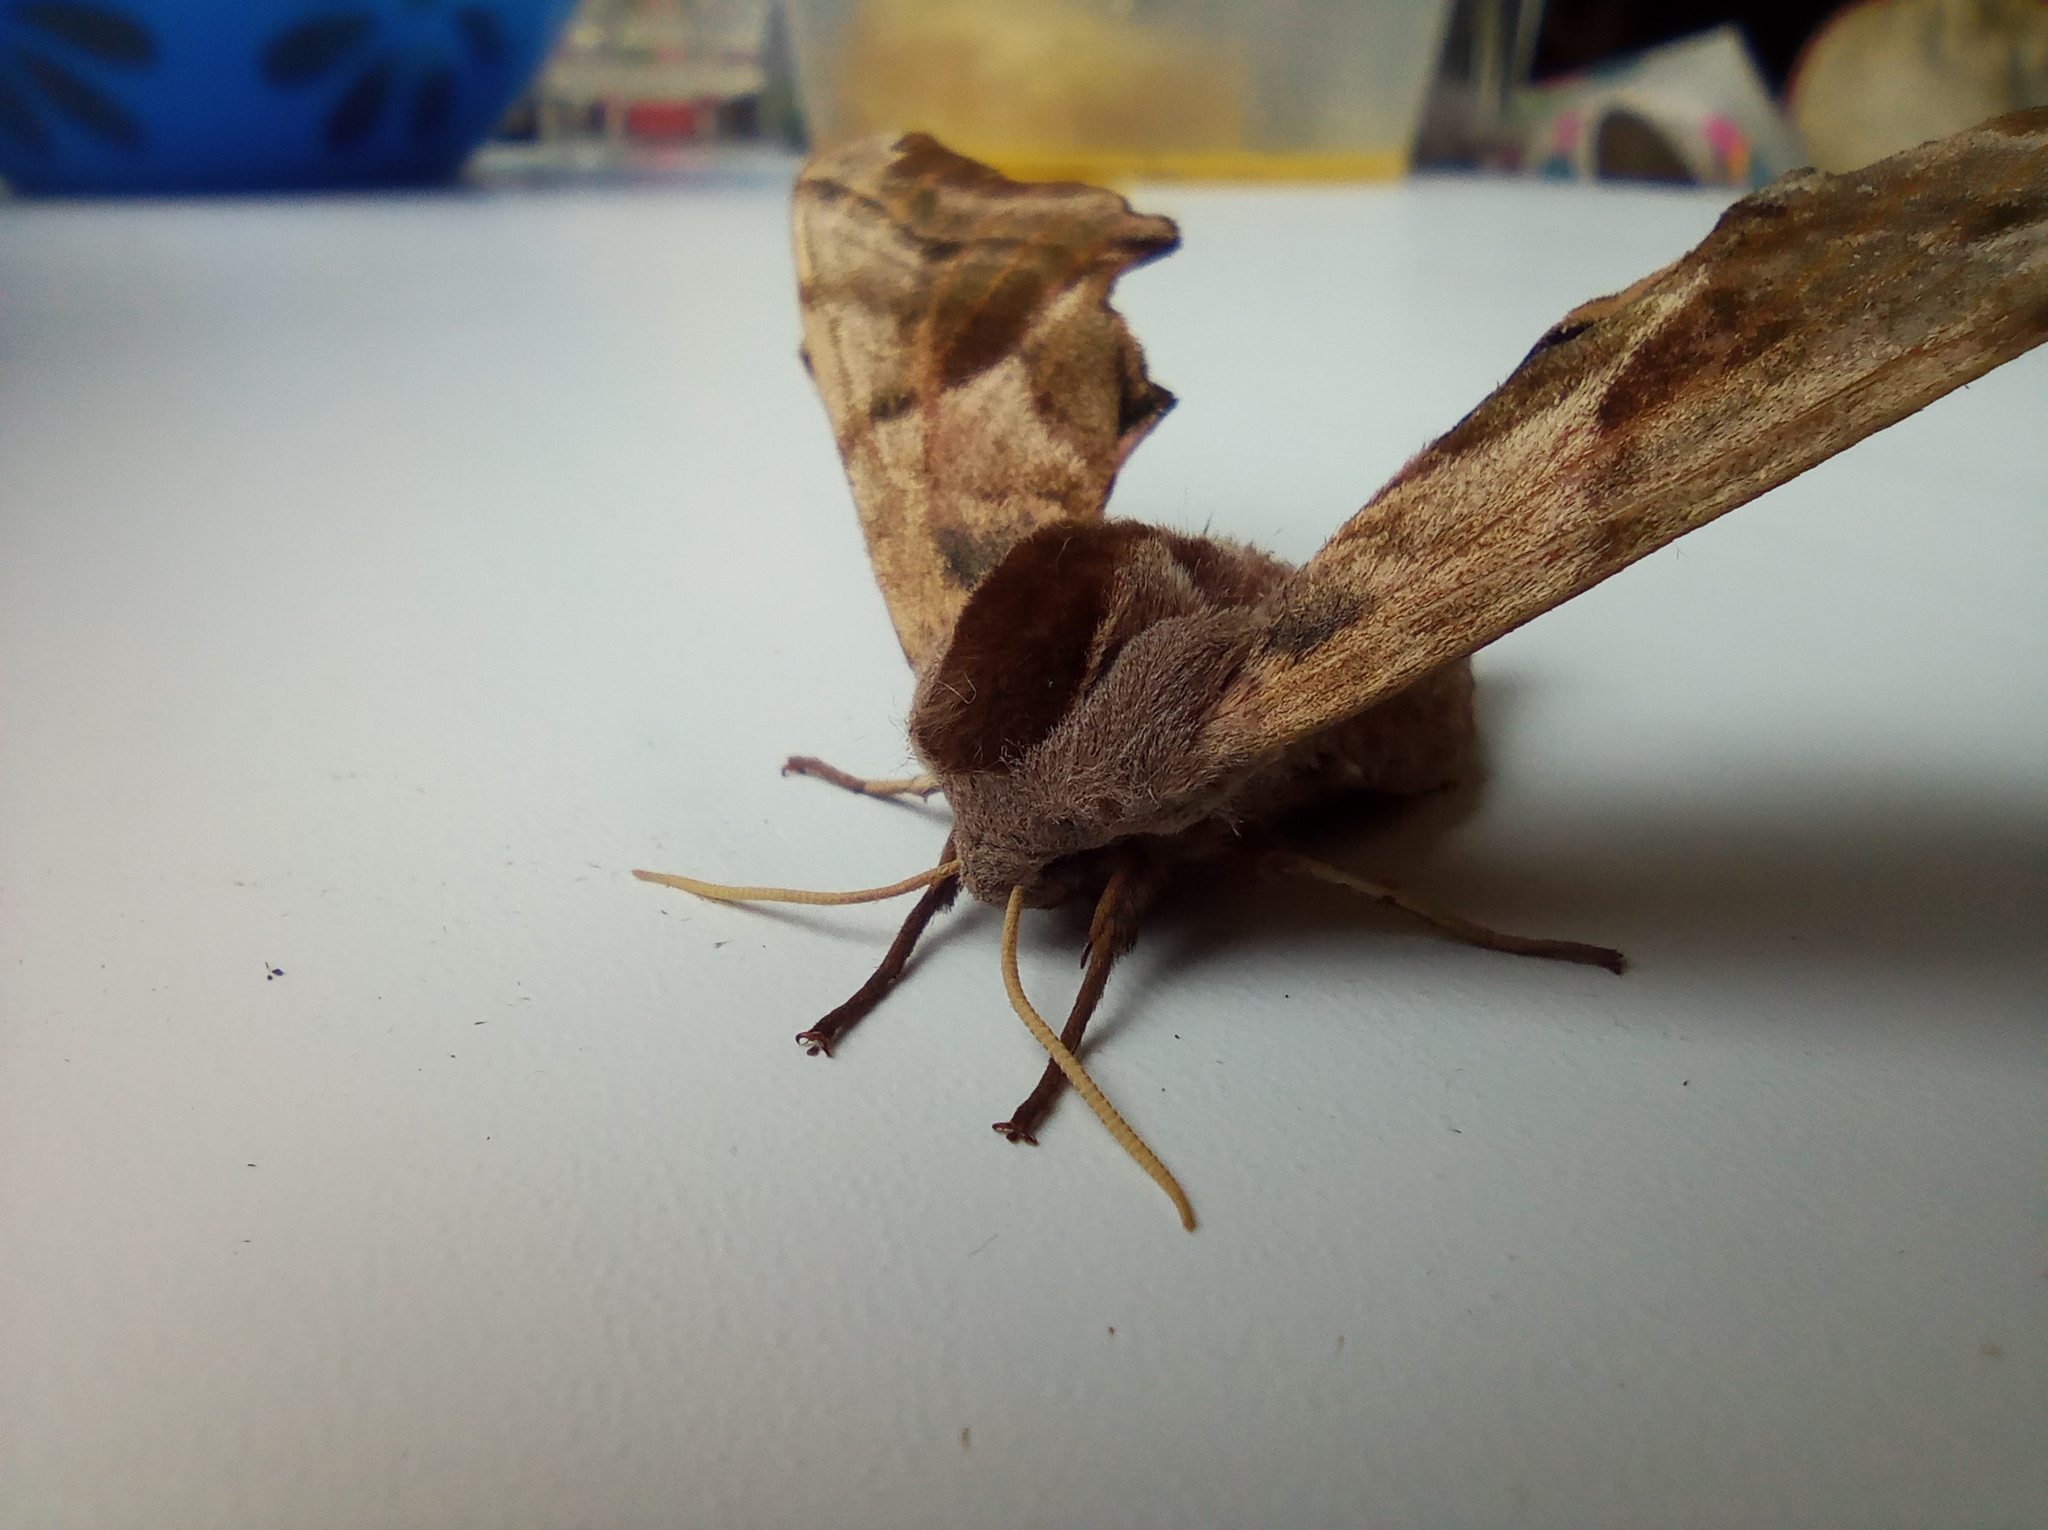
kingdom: Animalia
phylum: Arthropoda
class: Insecta
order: Lepidoptera
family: Sphingidae
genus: Smerinthus
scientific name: Smerinthus ocellata
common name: Eyed hawk-moth
